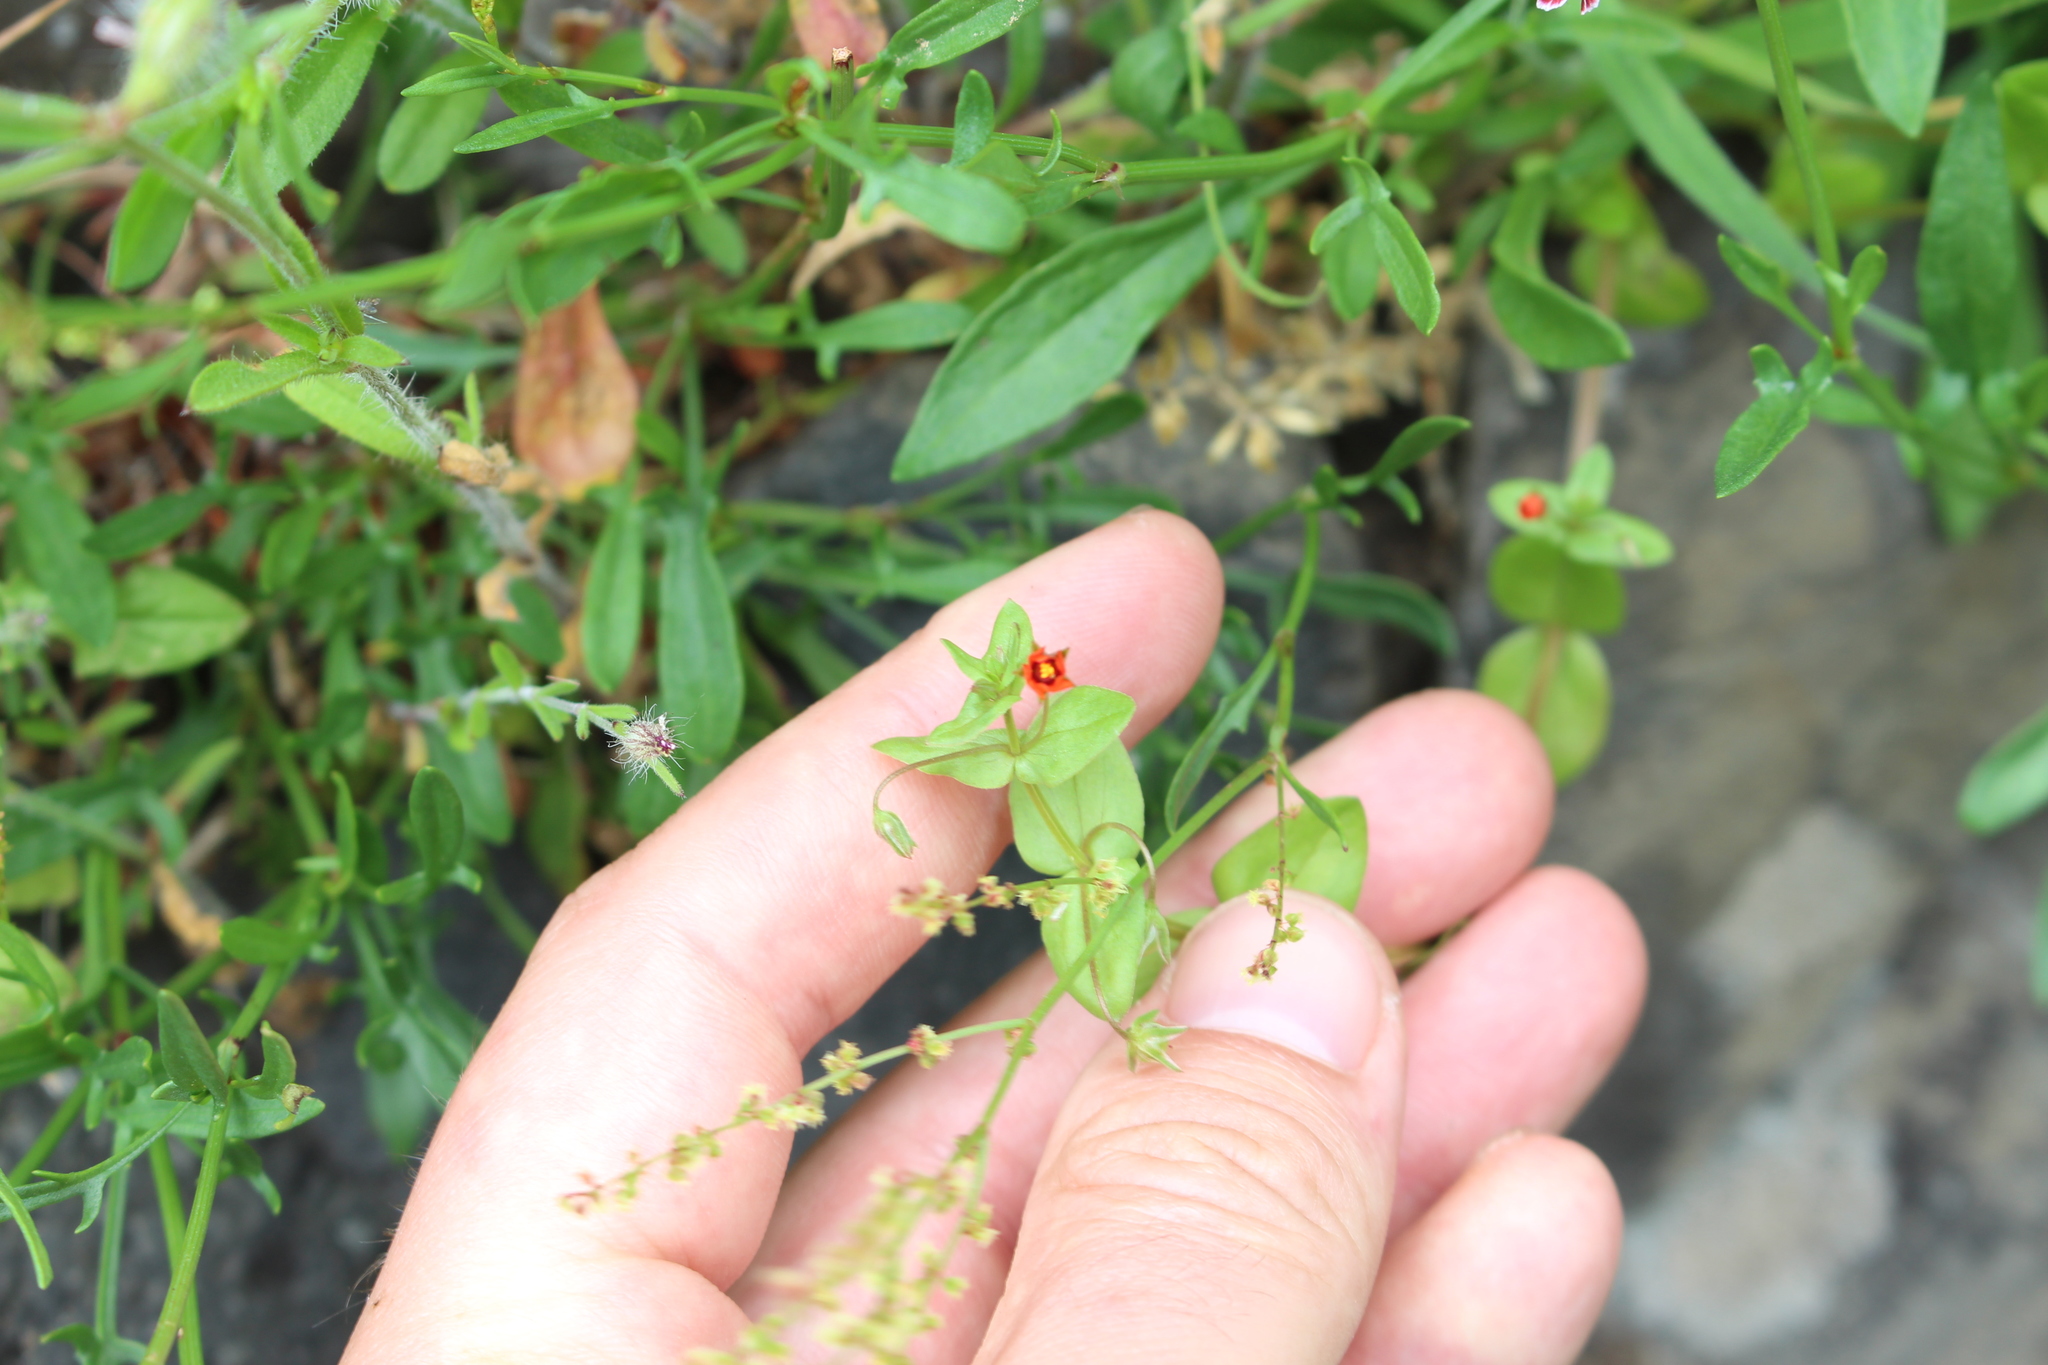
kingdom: Plantae
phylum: Tracheophyta
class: Magnoliopsida
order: Ericales
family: Primulaceae
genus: Lysimachia
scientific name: Lysimachia arvensis
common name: Scarlet pimpernel
